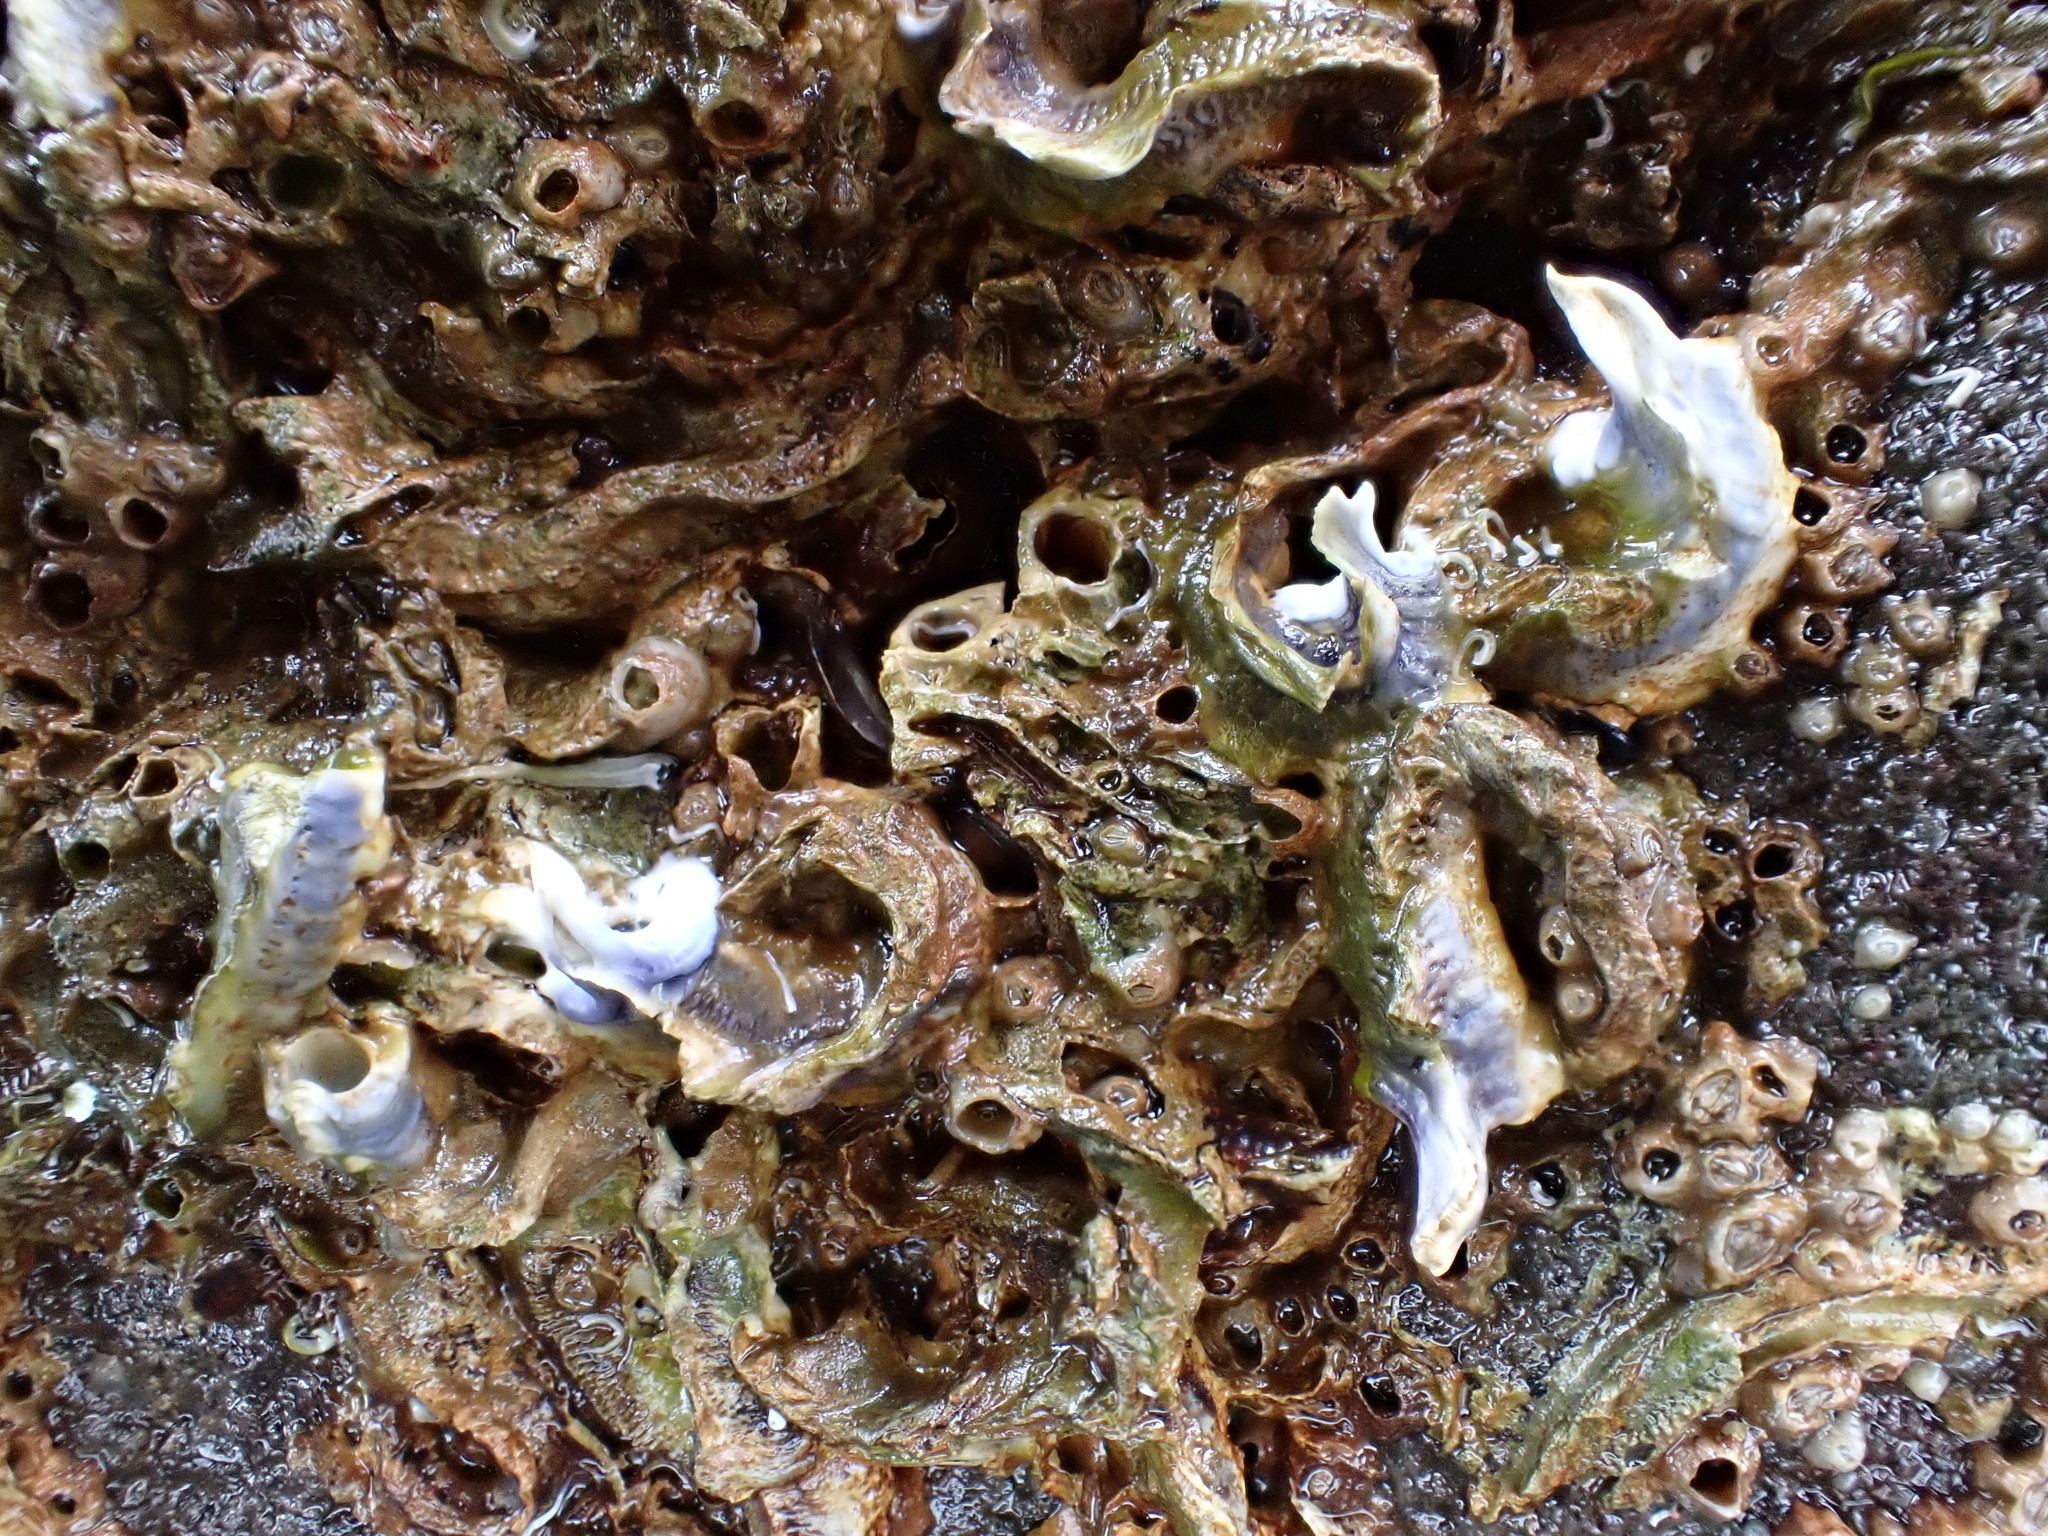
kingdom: Animalia
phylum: Annelida
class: Polychaeta
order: Sabellida
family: Serpulidae
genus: Spirobranchus
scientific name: Spirobranchus cariniferus
